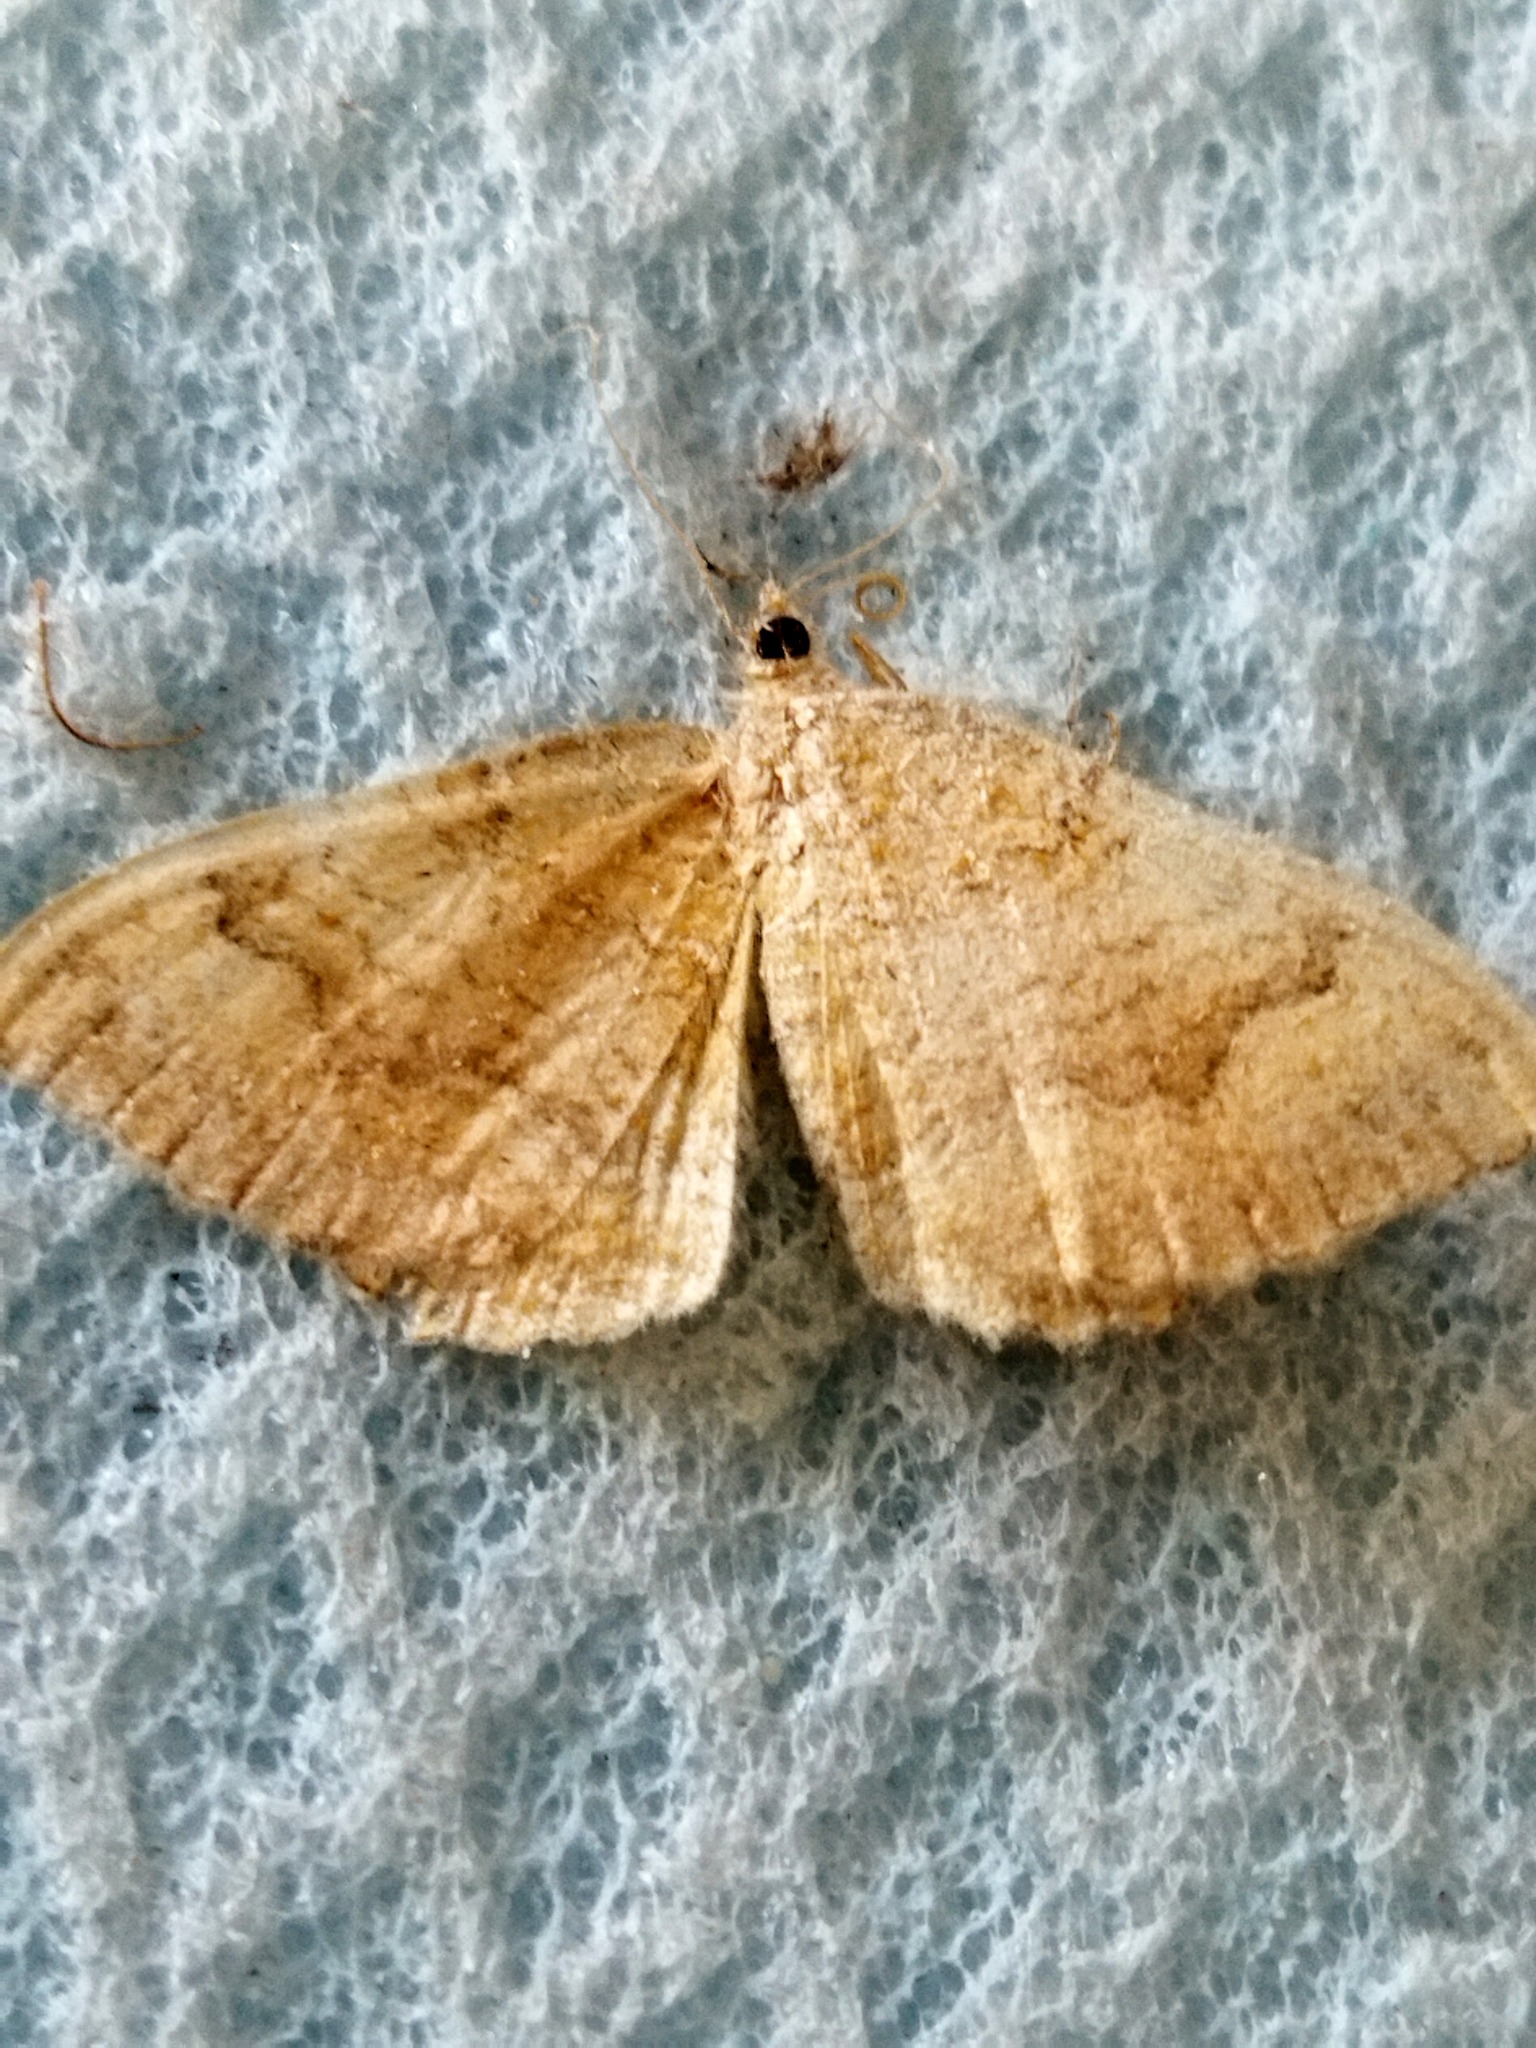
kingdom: Animalia
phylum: Arthropoda
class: Insecta
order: Lepidoptera
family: Geometridae
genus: Camptogramma
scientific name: Camptogramma bilineata
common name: Yellow shell
